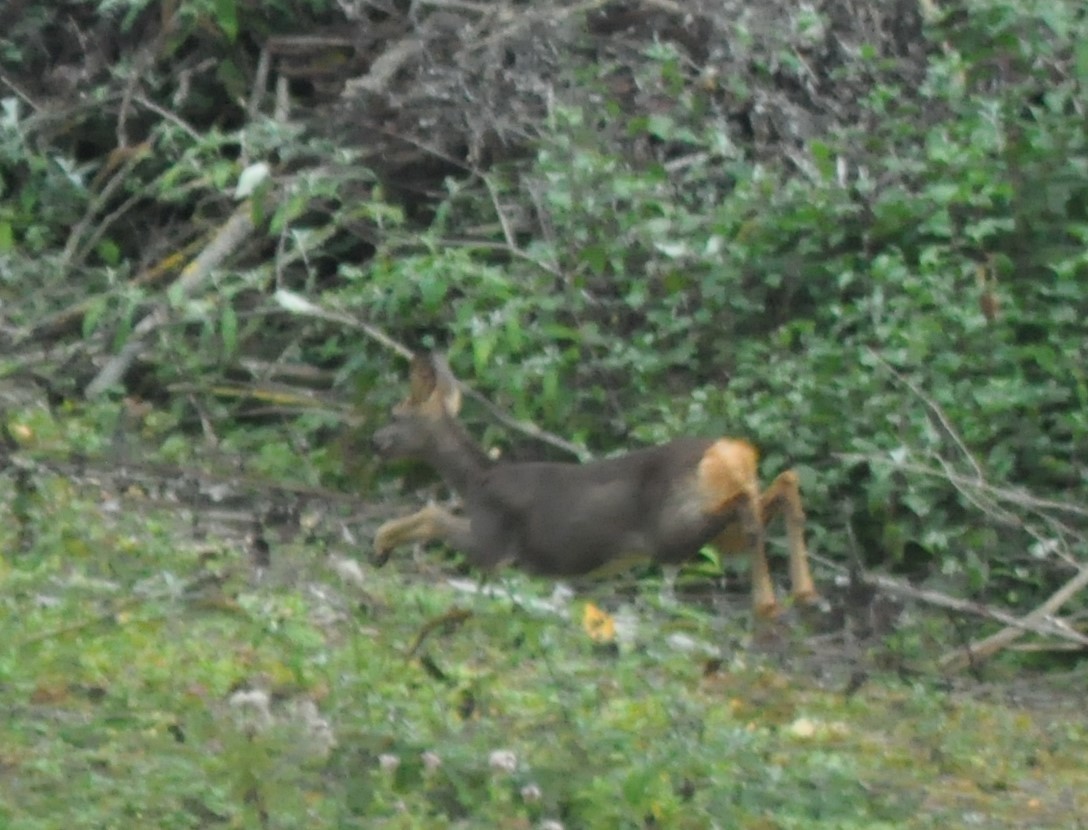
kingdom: Animalia
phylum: Chordata
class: Mammalia
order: Artiodactyla
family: Cervidae
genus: Capreolus
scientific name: Capreolus capreolus
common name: Western roe deer
